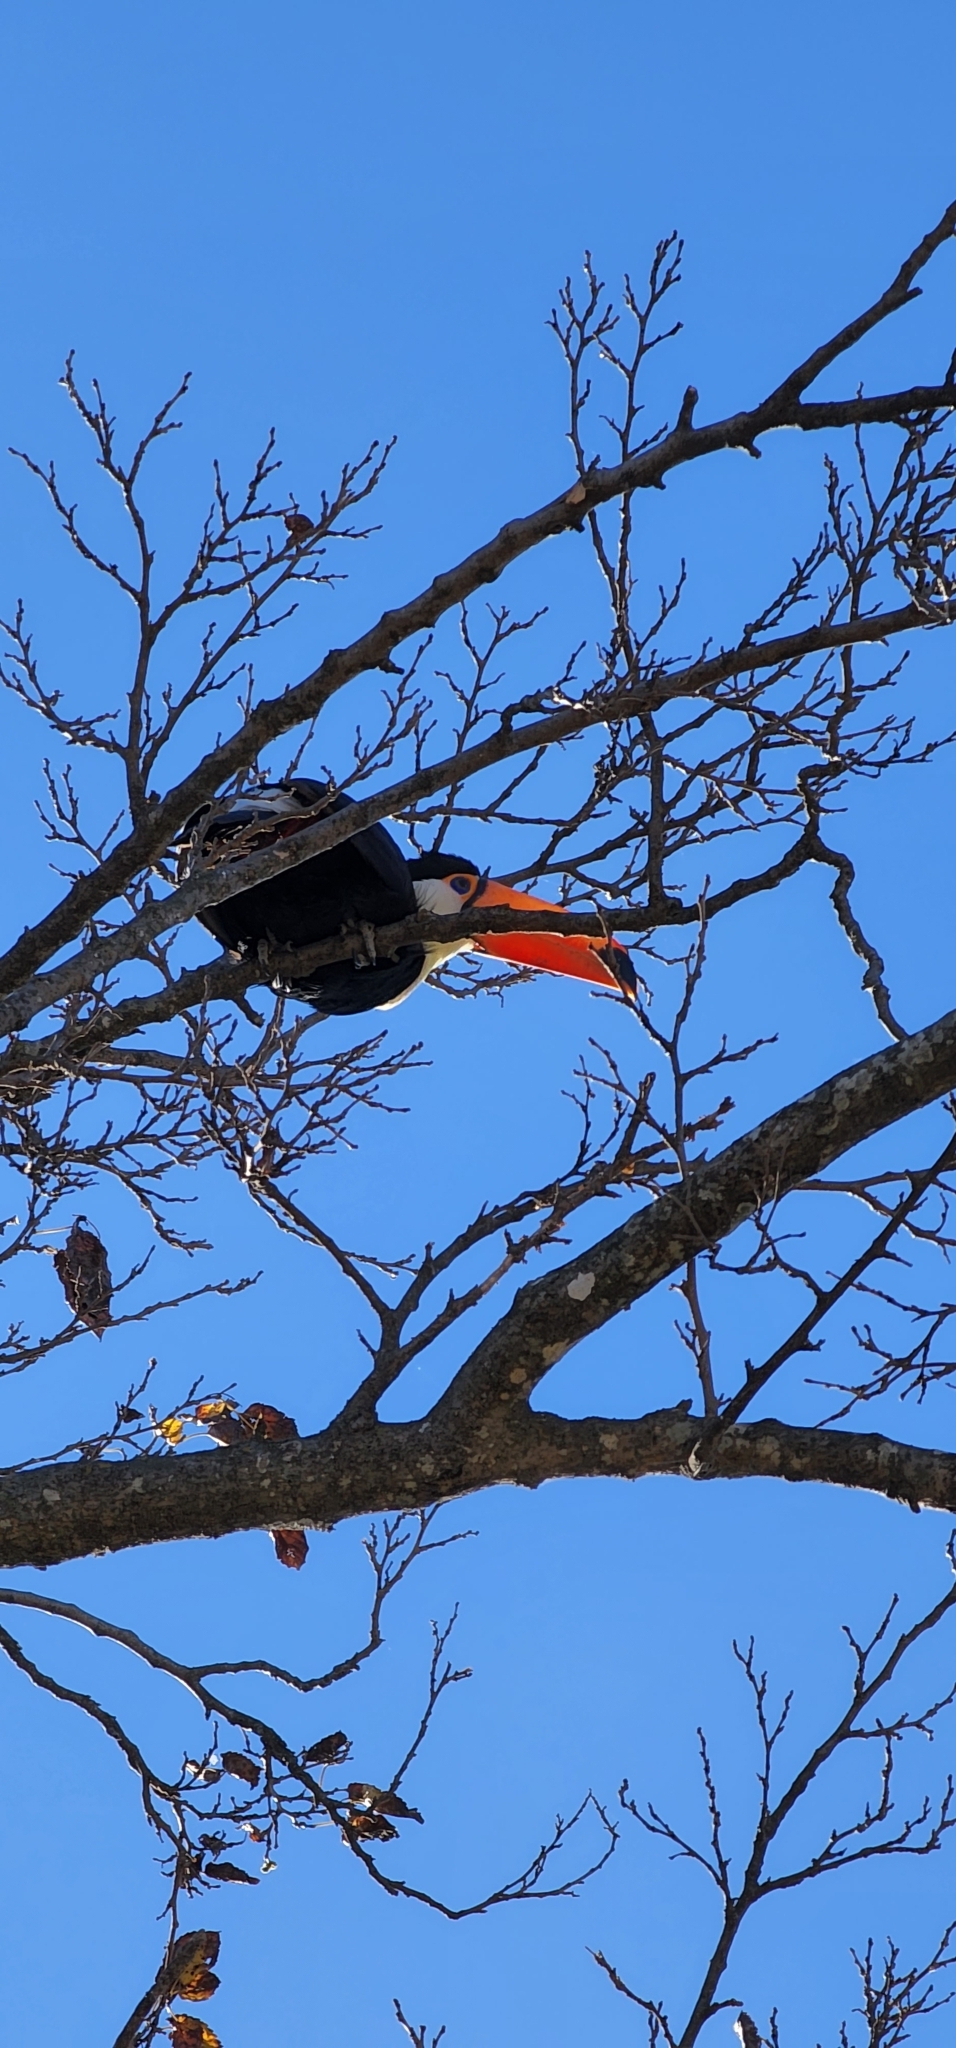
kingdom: Animalia
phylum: Chordata
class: Aves
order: Piciformes
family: Ramphastidae
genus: Ramphastos
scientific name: Ramphastos toco
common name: Toco toucan
